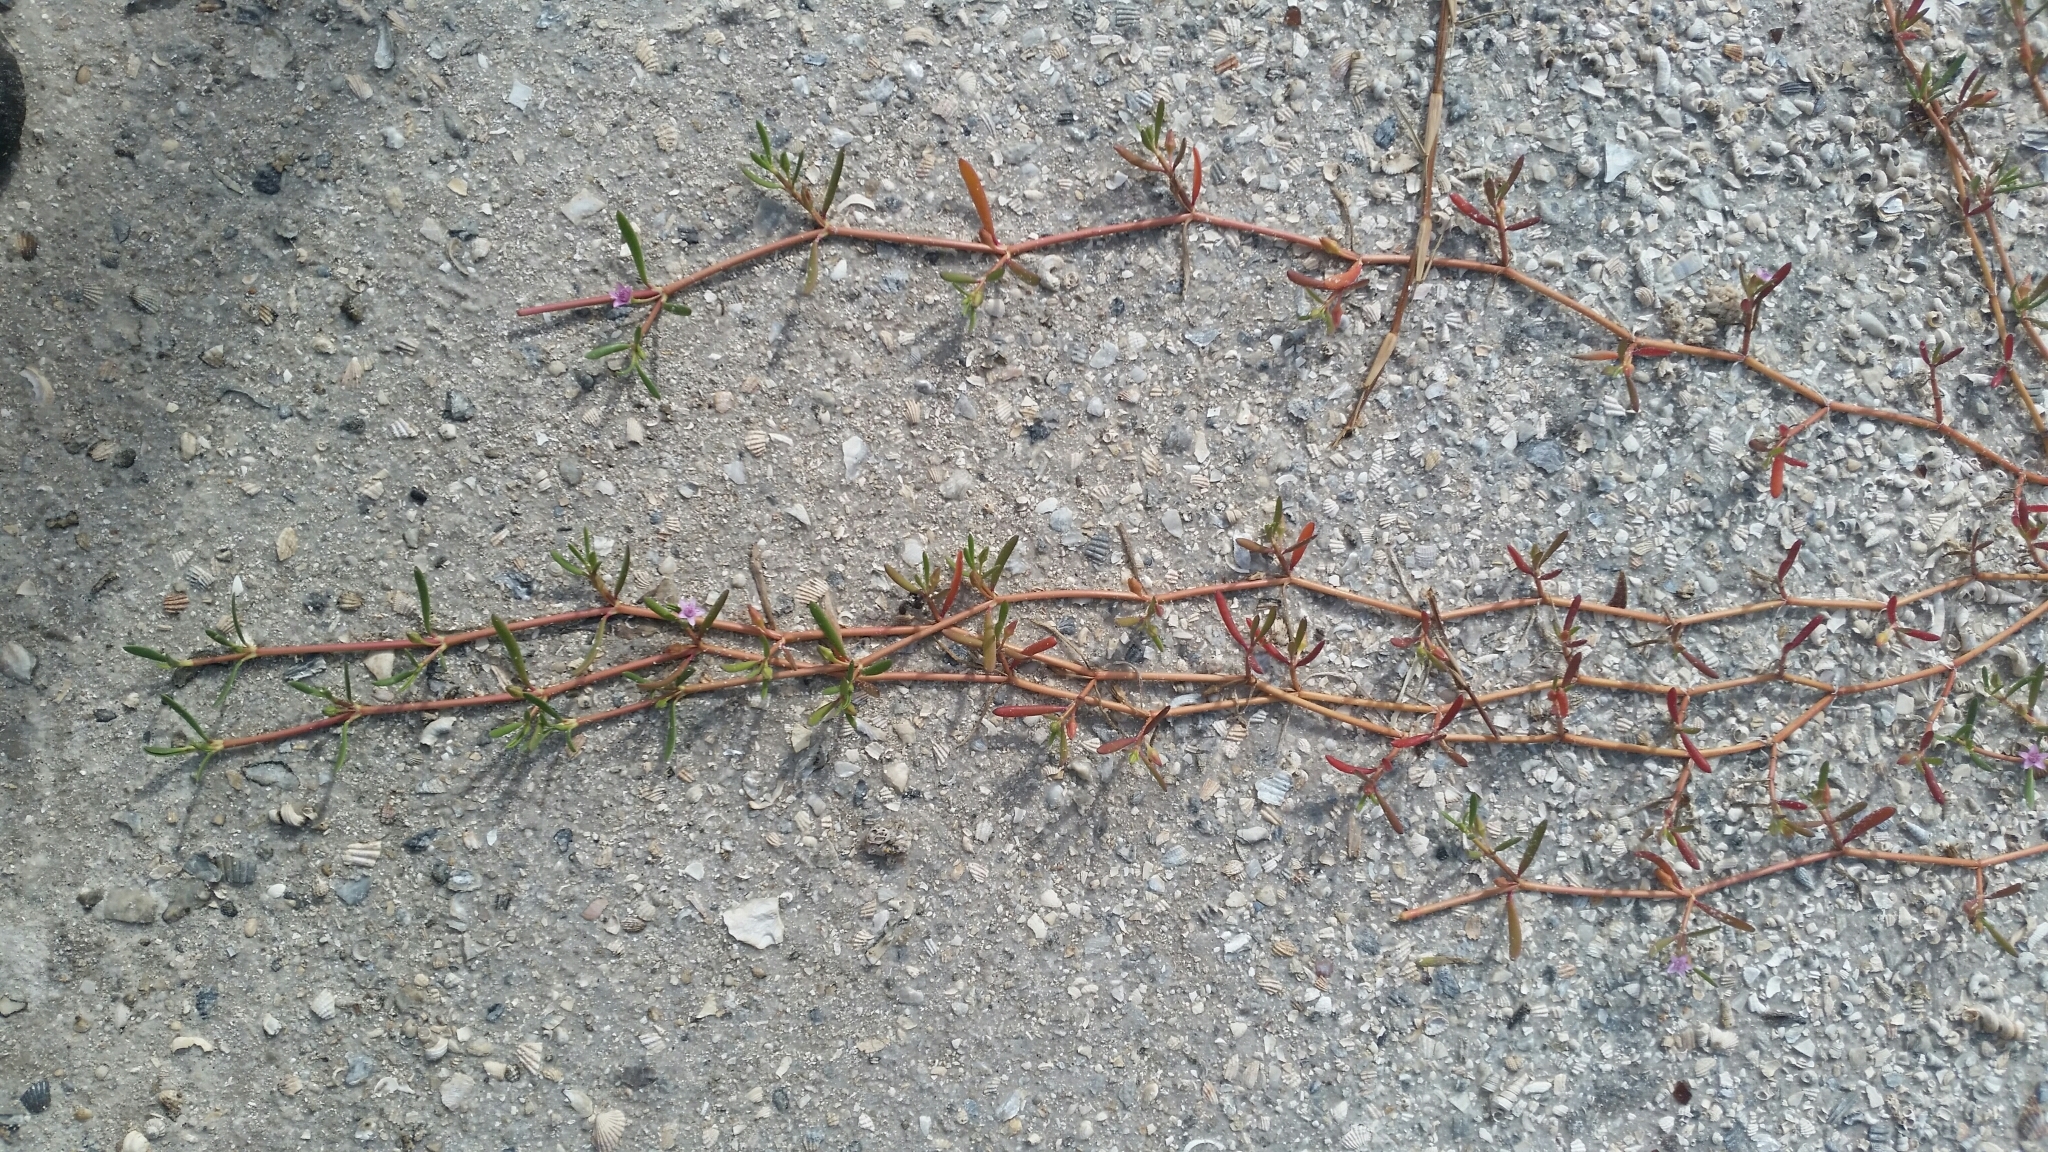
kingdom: Plantae
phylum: Tracheophyta
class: Magnoliopsida
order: Caryophyllales
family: Aizoaceae
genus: Sesuvium
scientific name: Sesuvium portulacastrum
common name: Sea-purslane
